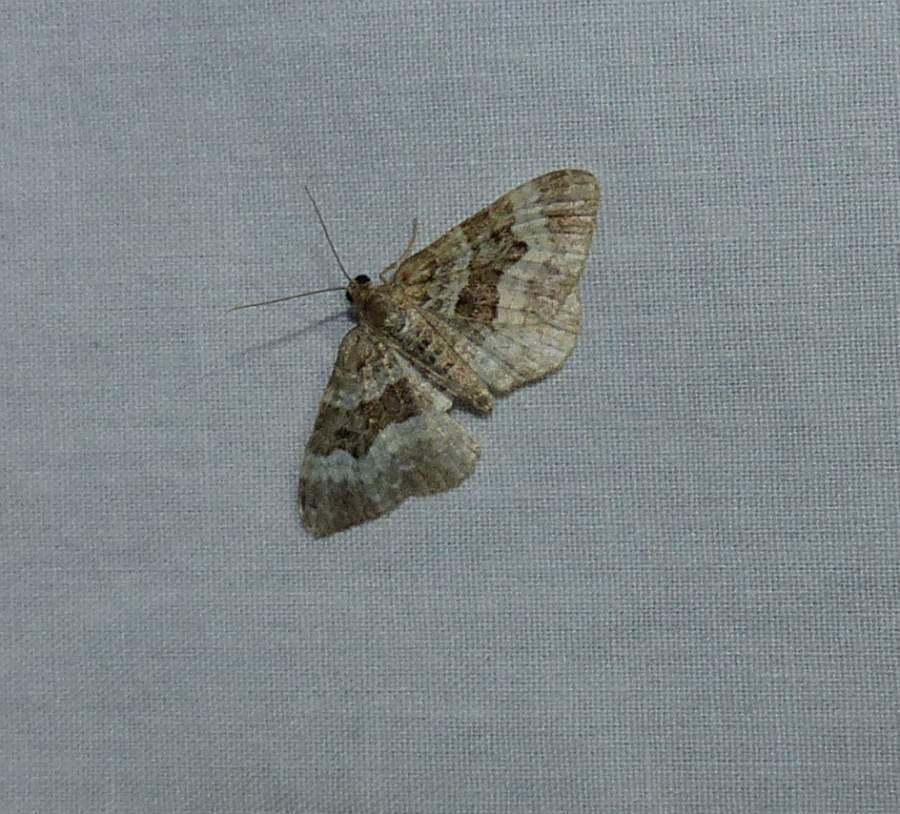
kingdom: Animalia
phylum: Arthropoda
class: Insecta
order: Lepidoptera
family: Geometridae
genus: Epirrhoe
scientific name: Epirrhoe alternata
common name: Common carpet
